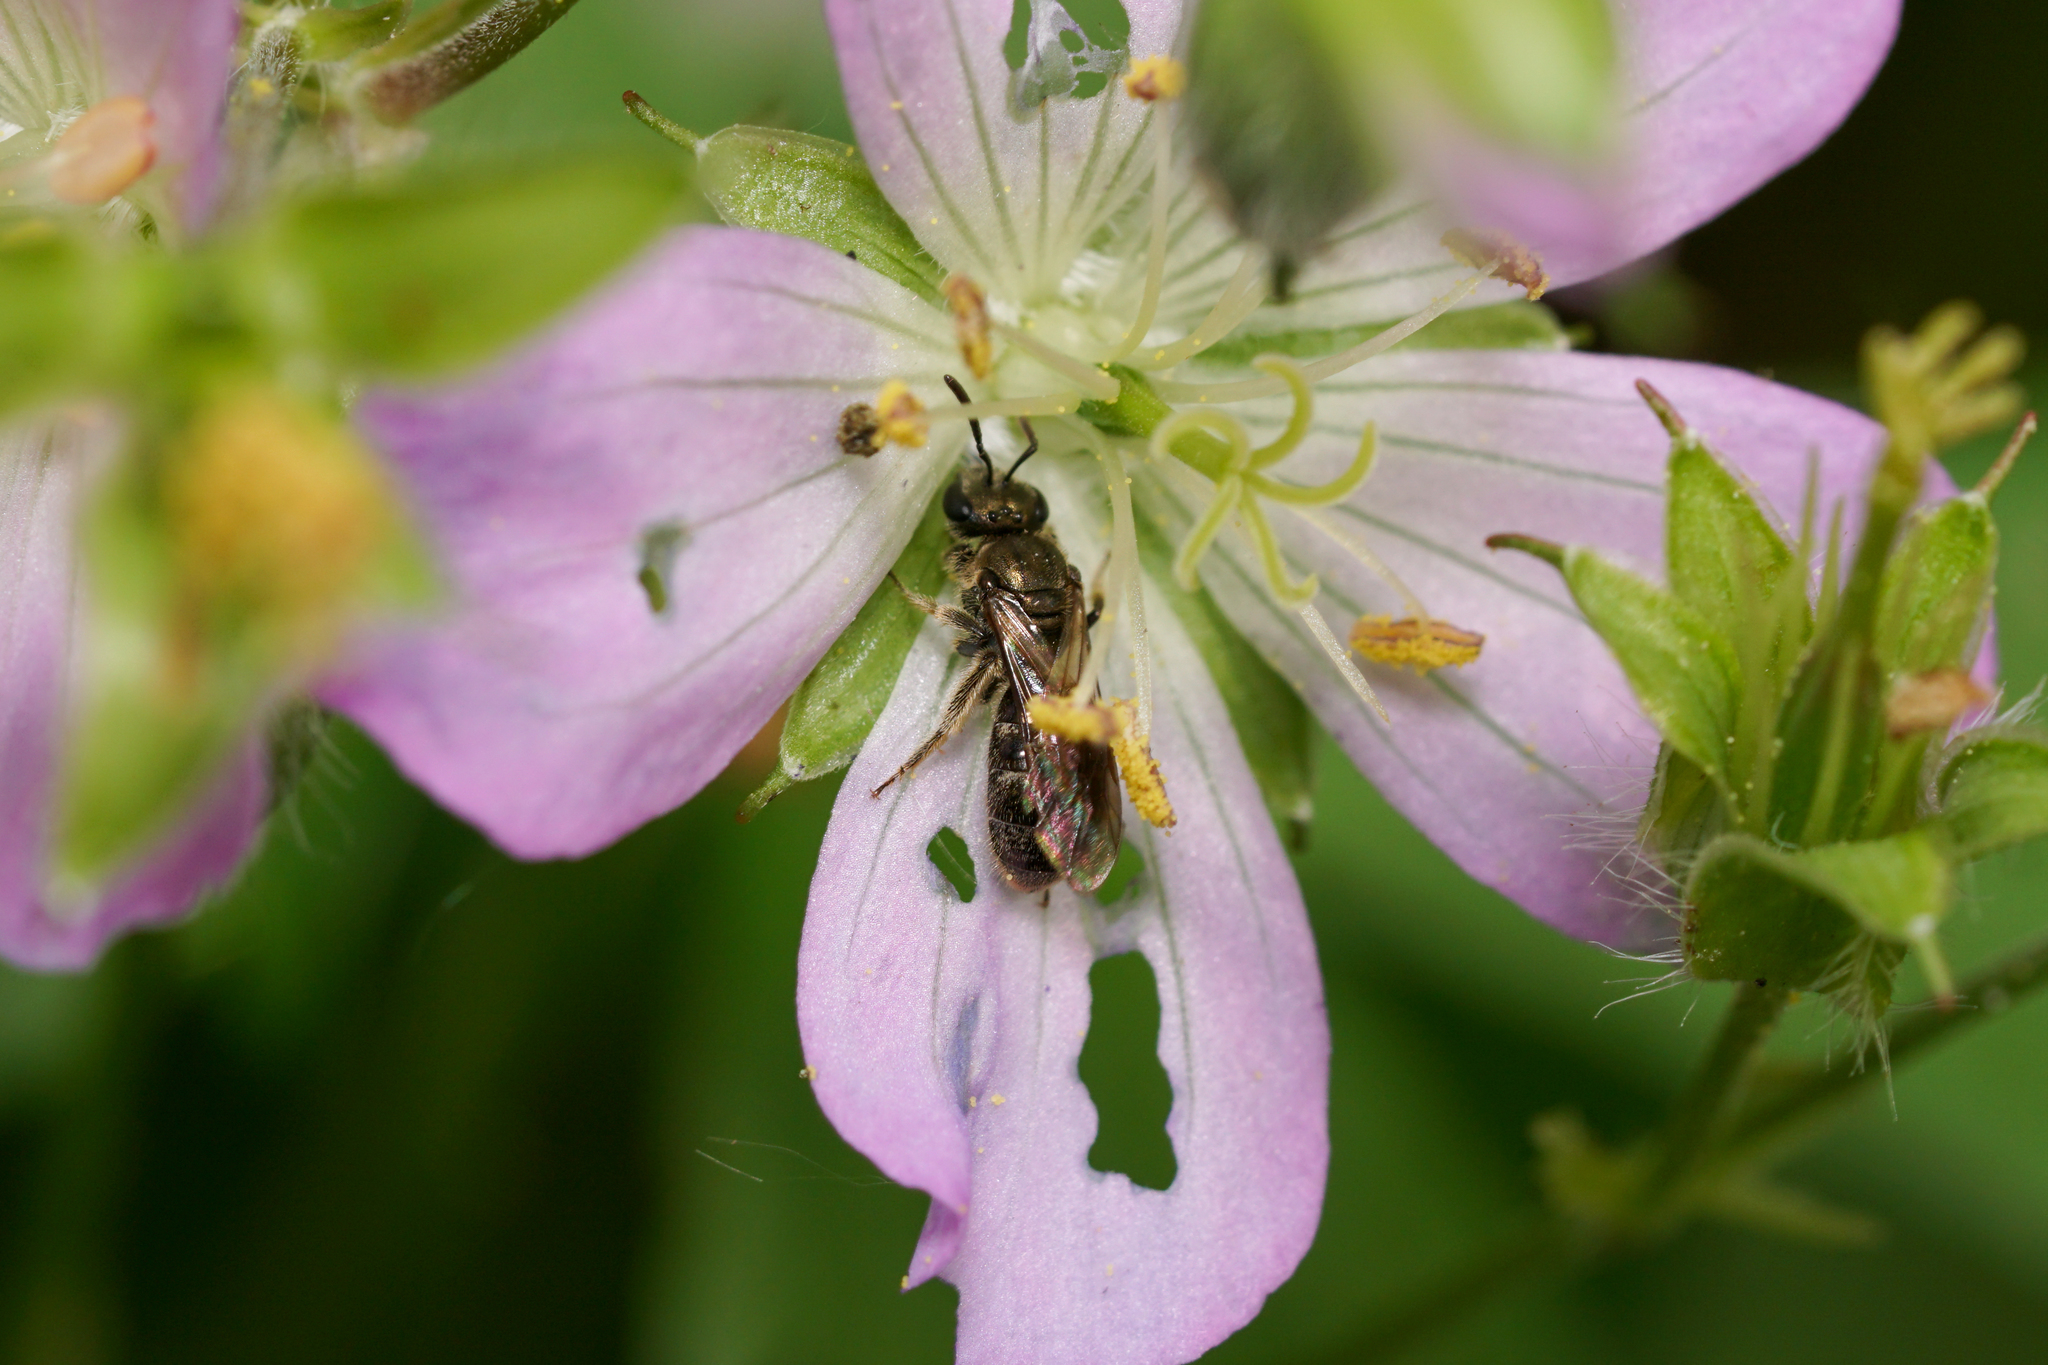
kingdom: Animalia
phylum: Arthropoda
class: Insecta
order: Hymenoptera
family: Halictidae
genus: Dialictus
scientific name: Dialictus
